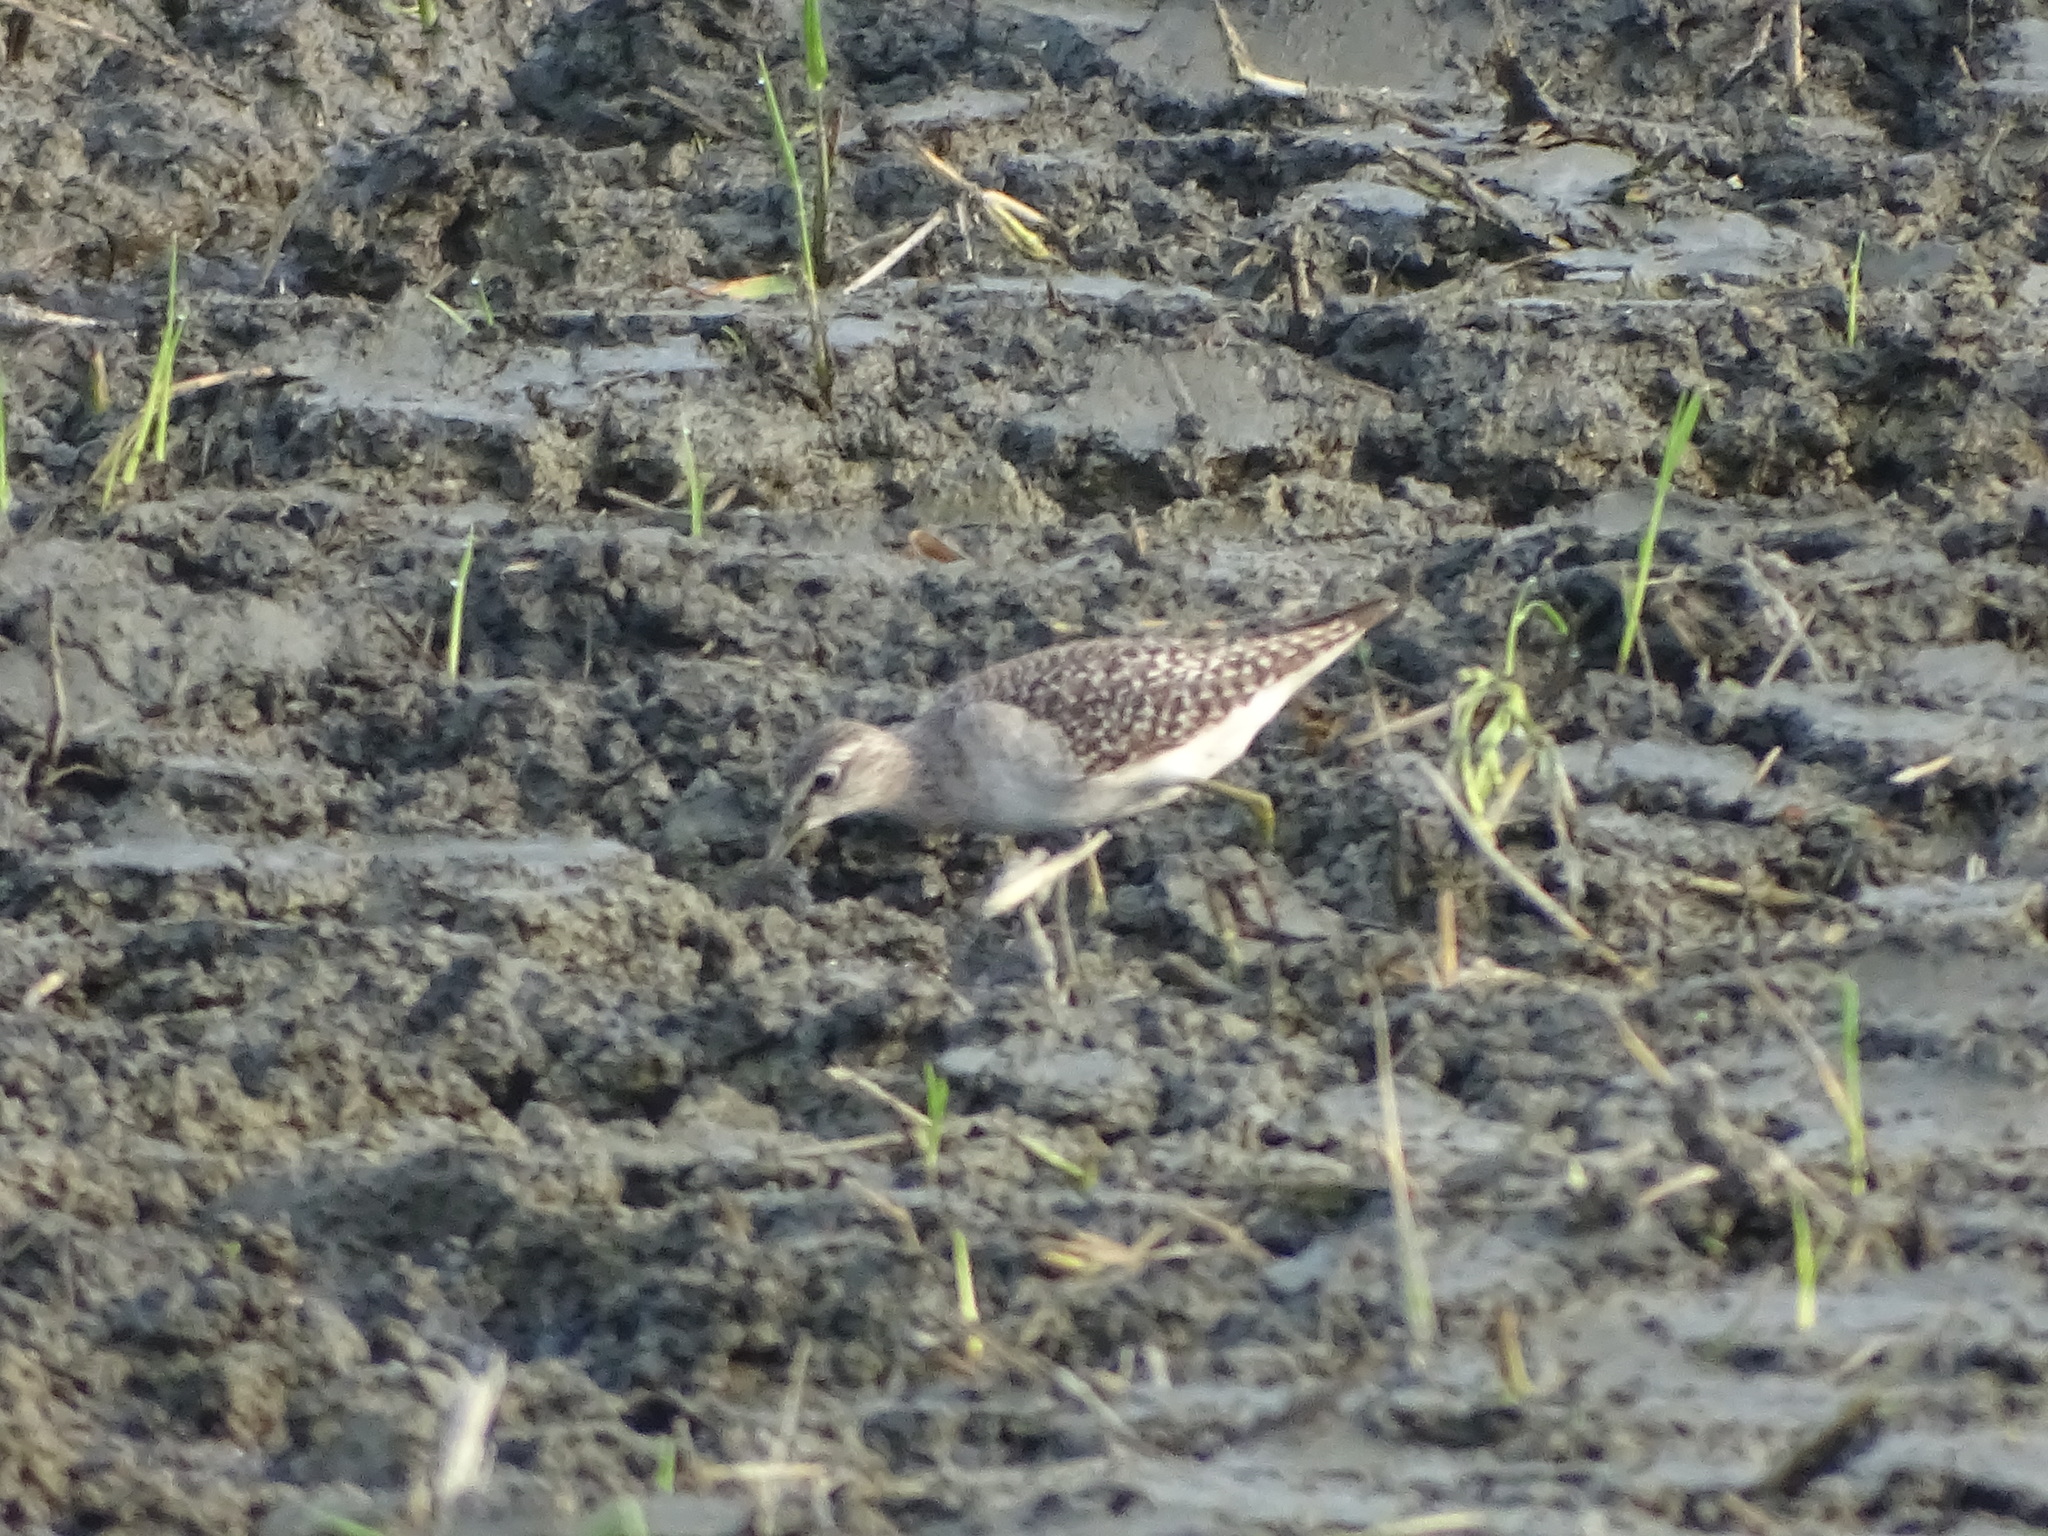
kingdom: Animalia
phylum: Chordata
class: Aves
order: Charadriiformes
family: Scolopacidae
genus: Tringa
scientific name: Tringa glareola
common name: Wood sandpiper
